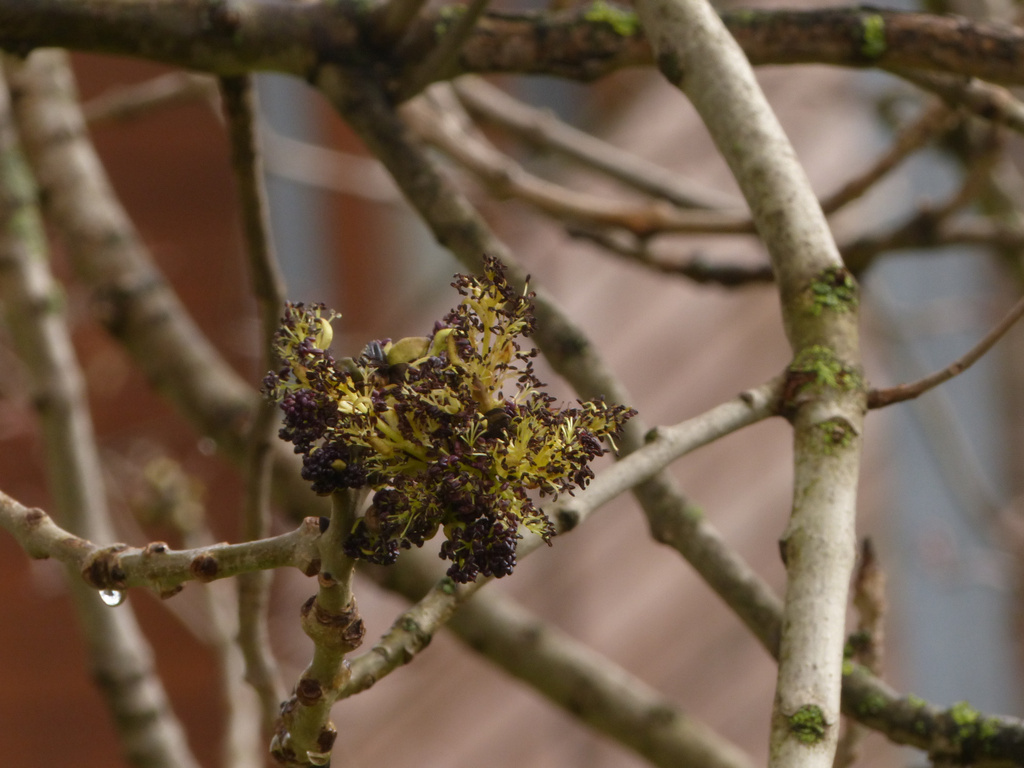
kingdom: Plantae
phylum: Tracheophyta
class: Magnoliopsida
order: Lamiales
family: Oleaceae
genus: Fraxinus
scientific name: Fraxinus excelsior
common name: European ash
